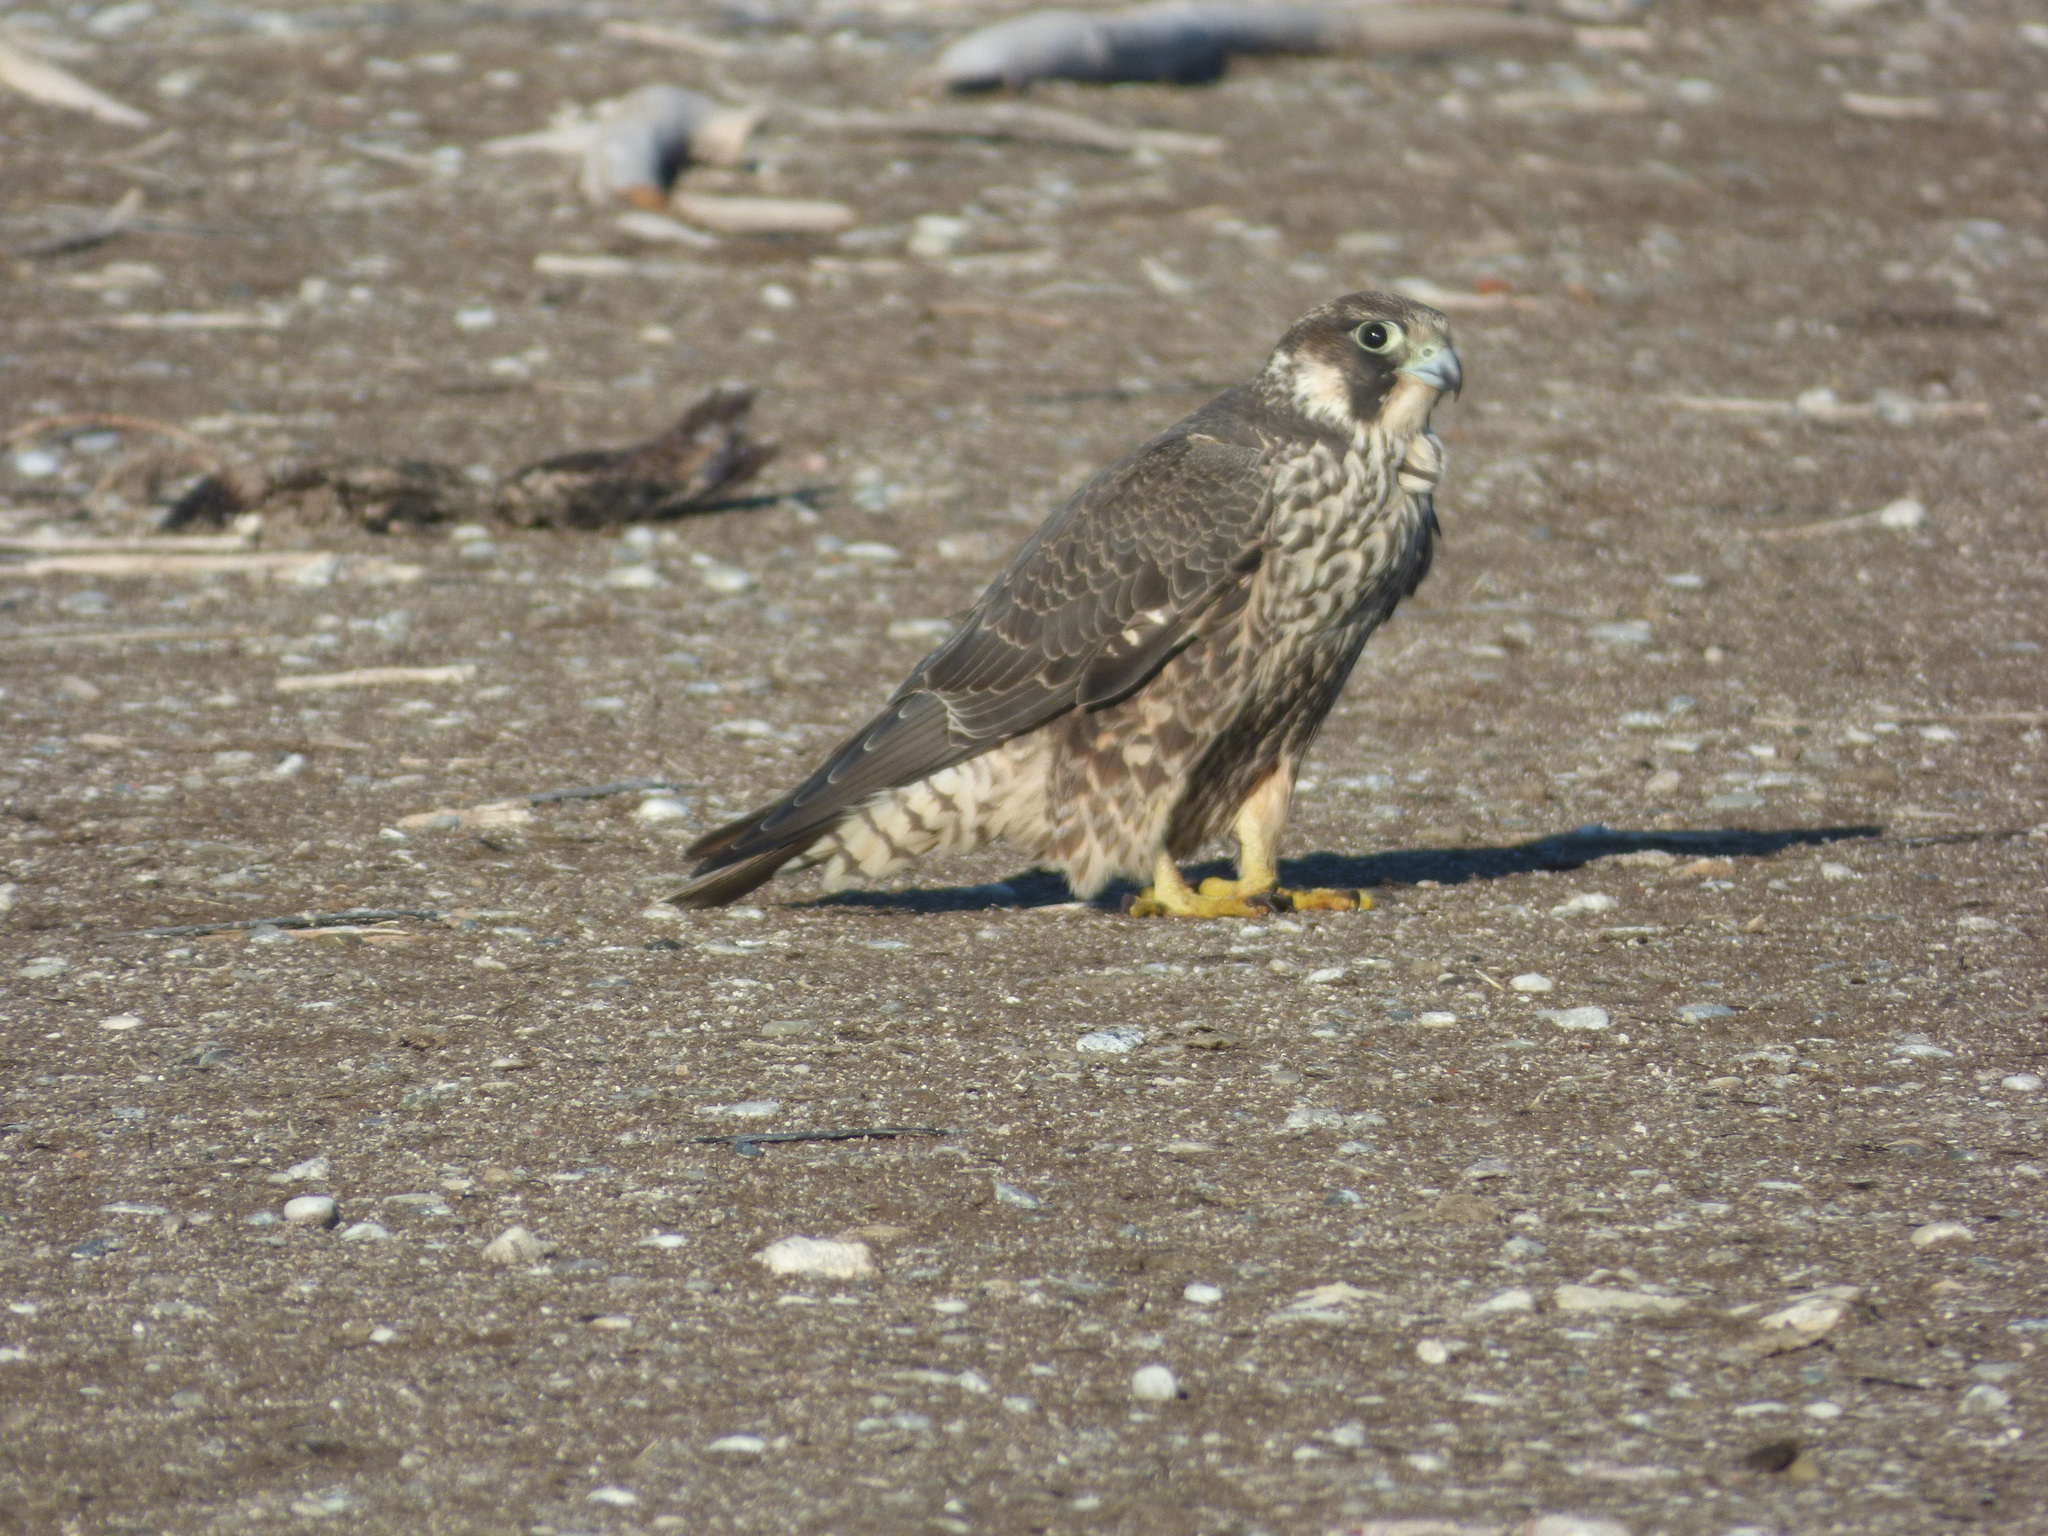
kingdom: Animalia
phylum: Chordata
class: Aves
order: Falconiformes
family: Falconidae
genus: Falco
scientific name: Falco peregrinus
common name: Peregrine falcon
